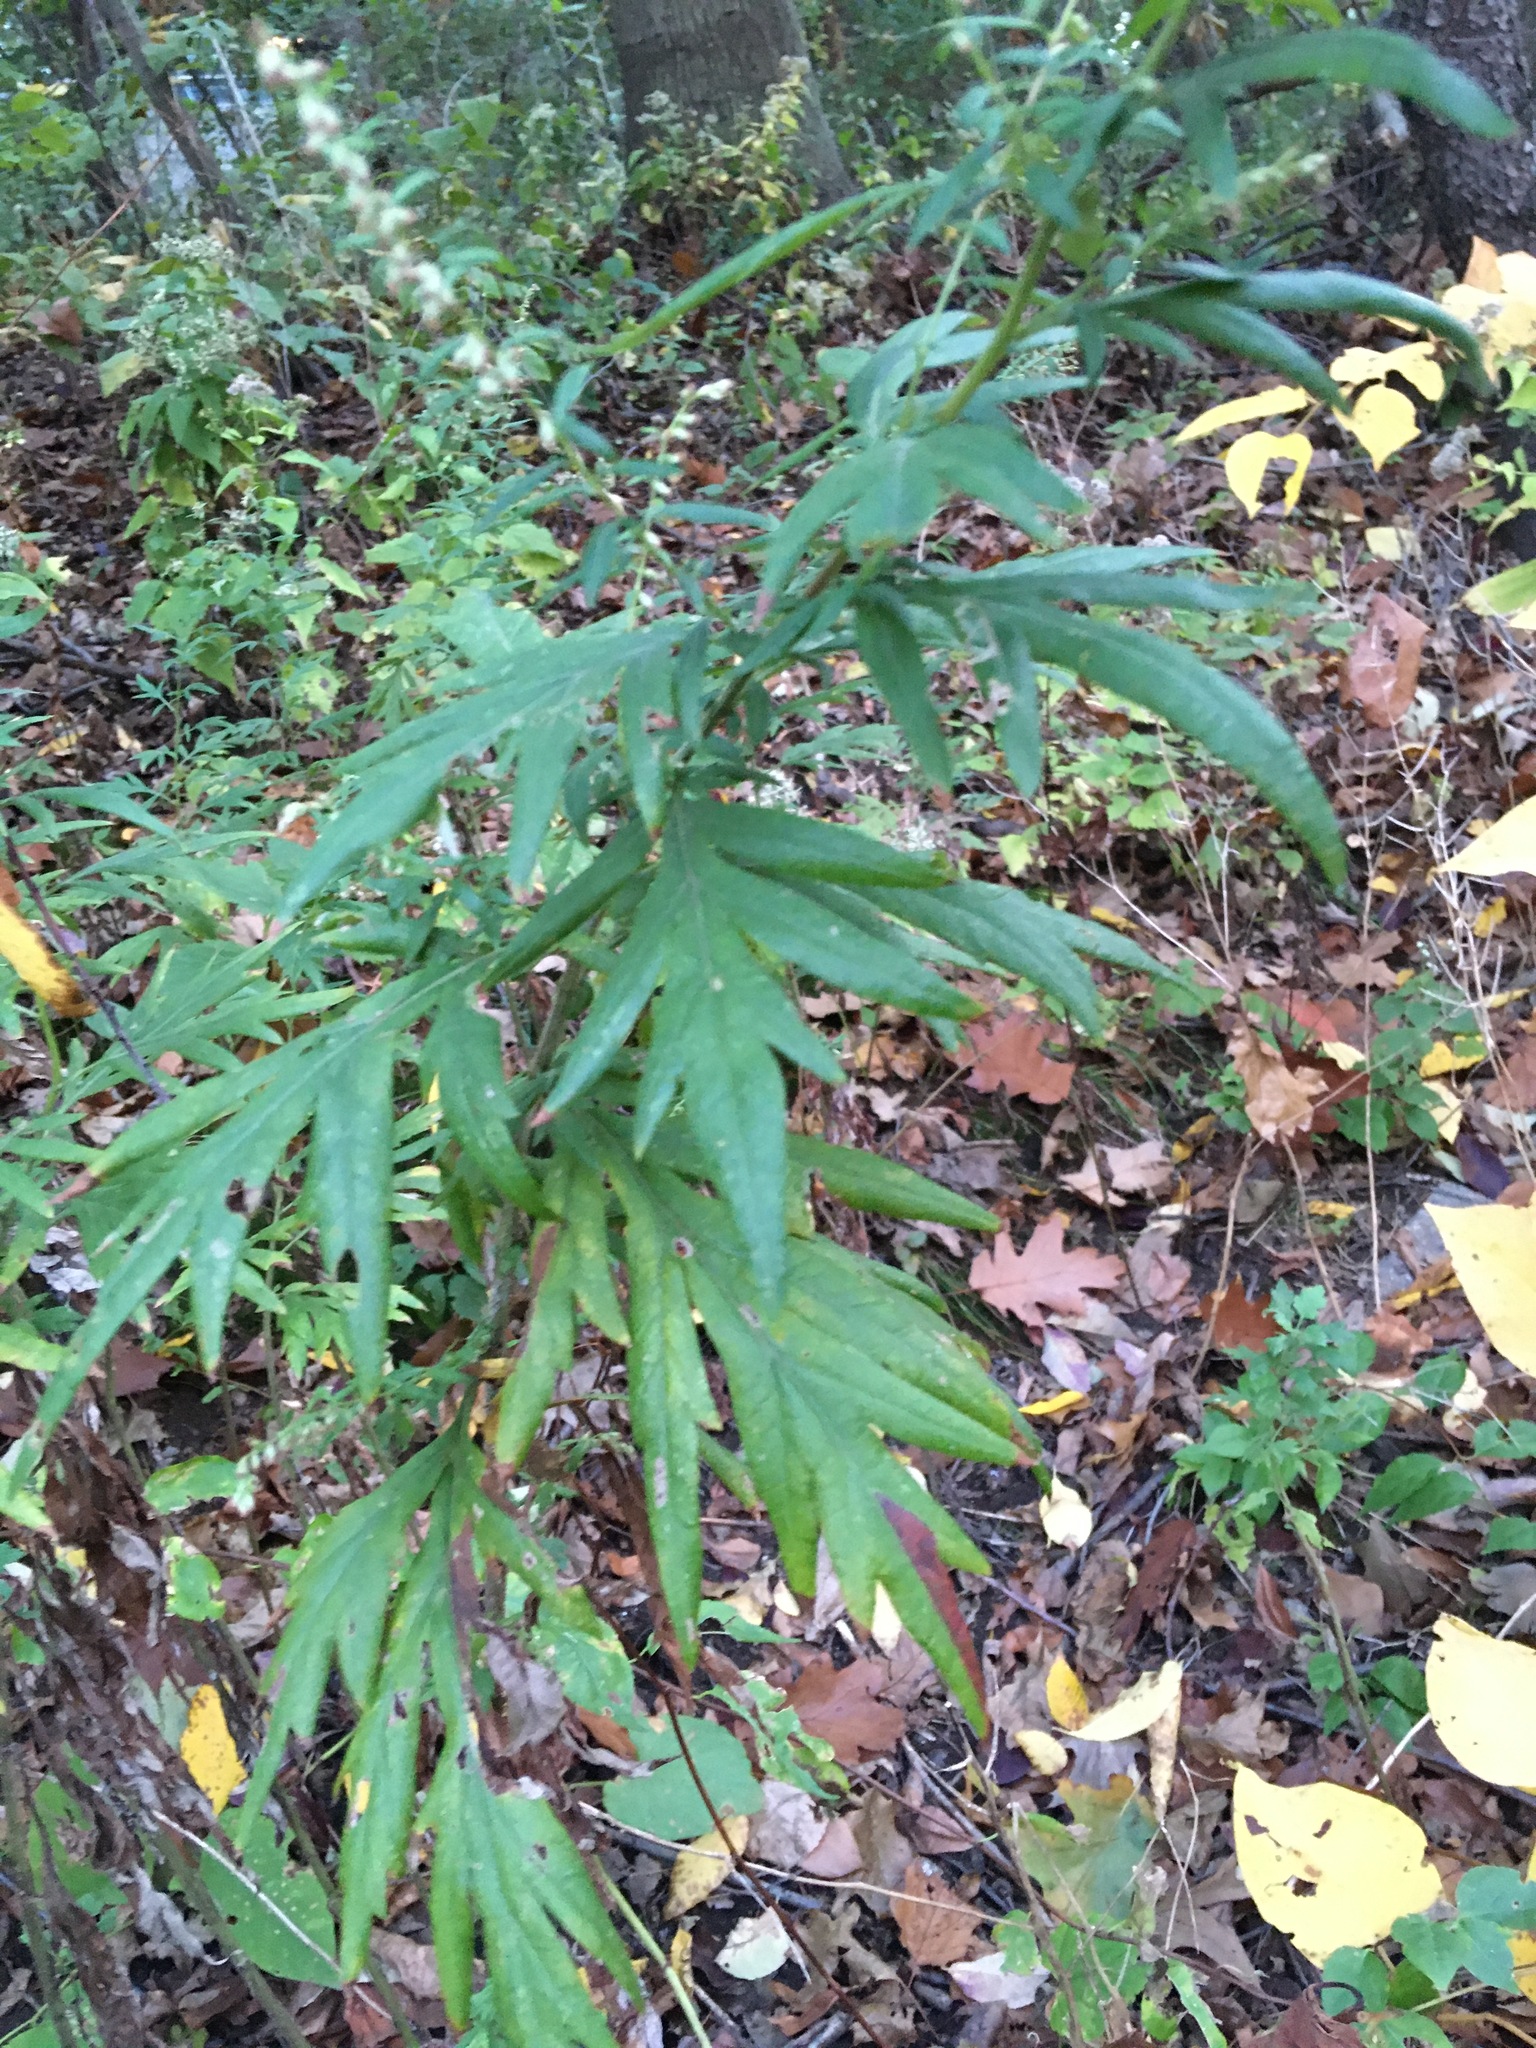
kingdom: Plantae
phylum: Tracheophyta
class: Magnoliopsida
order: Asterales
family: Asteraceae
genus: Artemisia
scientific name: Artemisia vulgaris
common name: Mugwort
